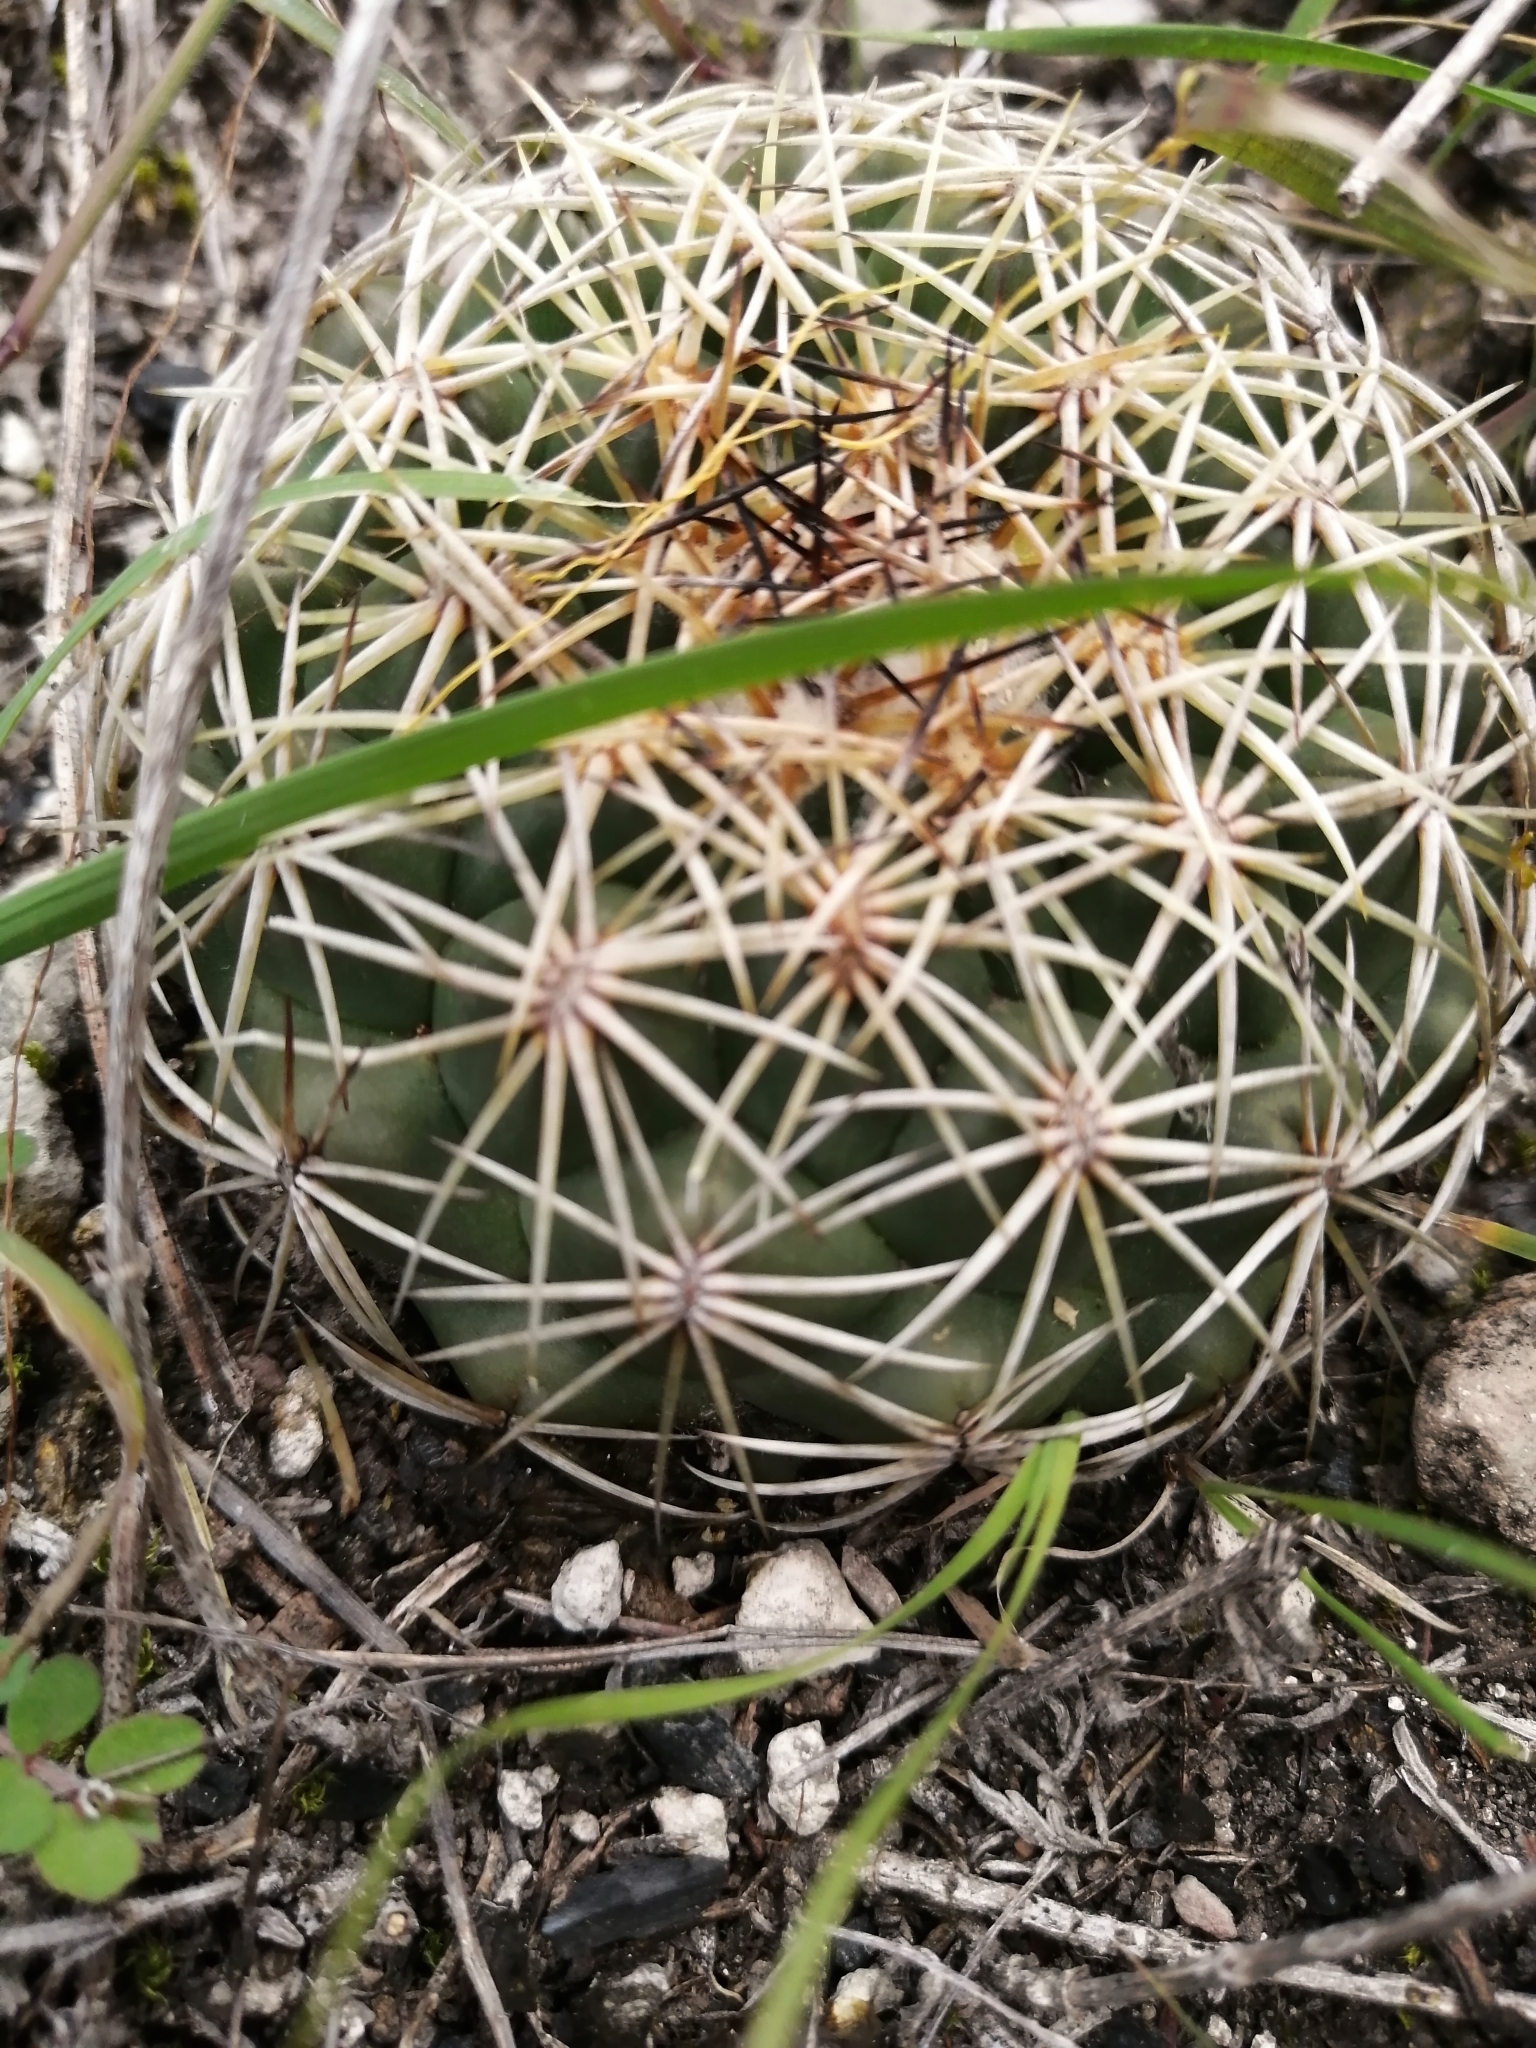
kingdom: Plantae
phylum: Tracheophyta
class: Magnoliopsida
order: Caryophyllales
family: Cactaceae
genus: Coryphantha
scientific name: Coryphantha pallida
